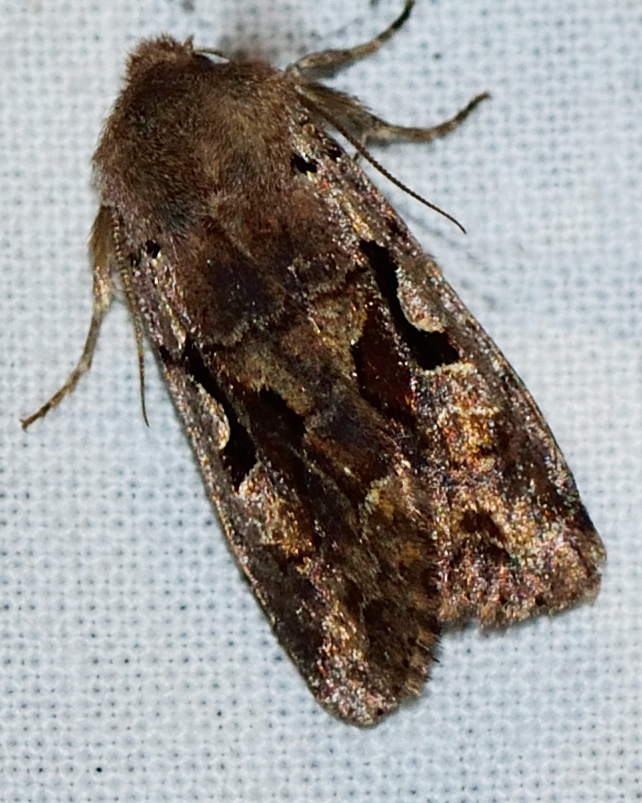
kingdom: Animalia
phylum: Arthropoda
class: Insecta
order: Lepidoptera
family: Noctuidae
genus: Orthosia
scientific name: Orthosia gothica
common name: Hebrew character
